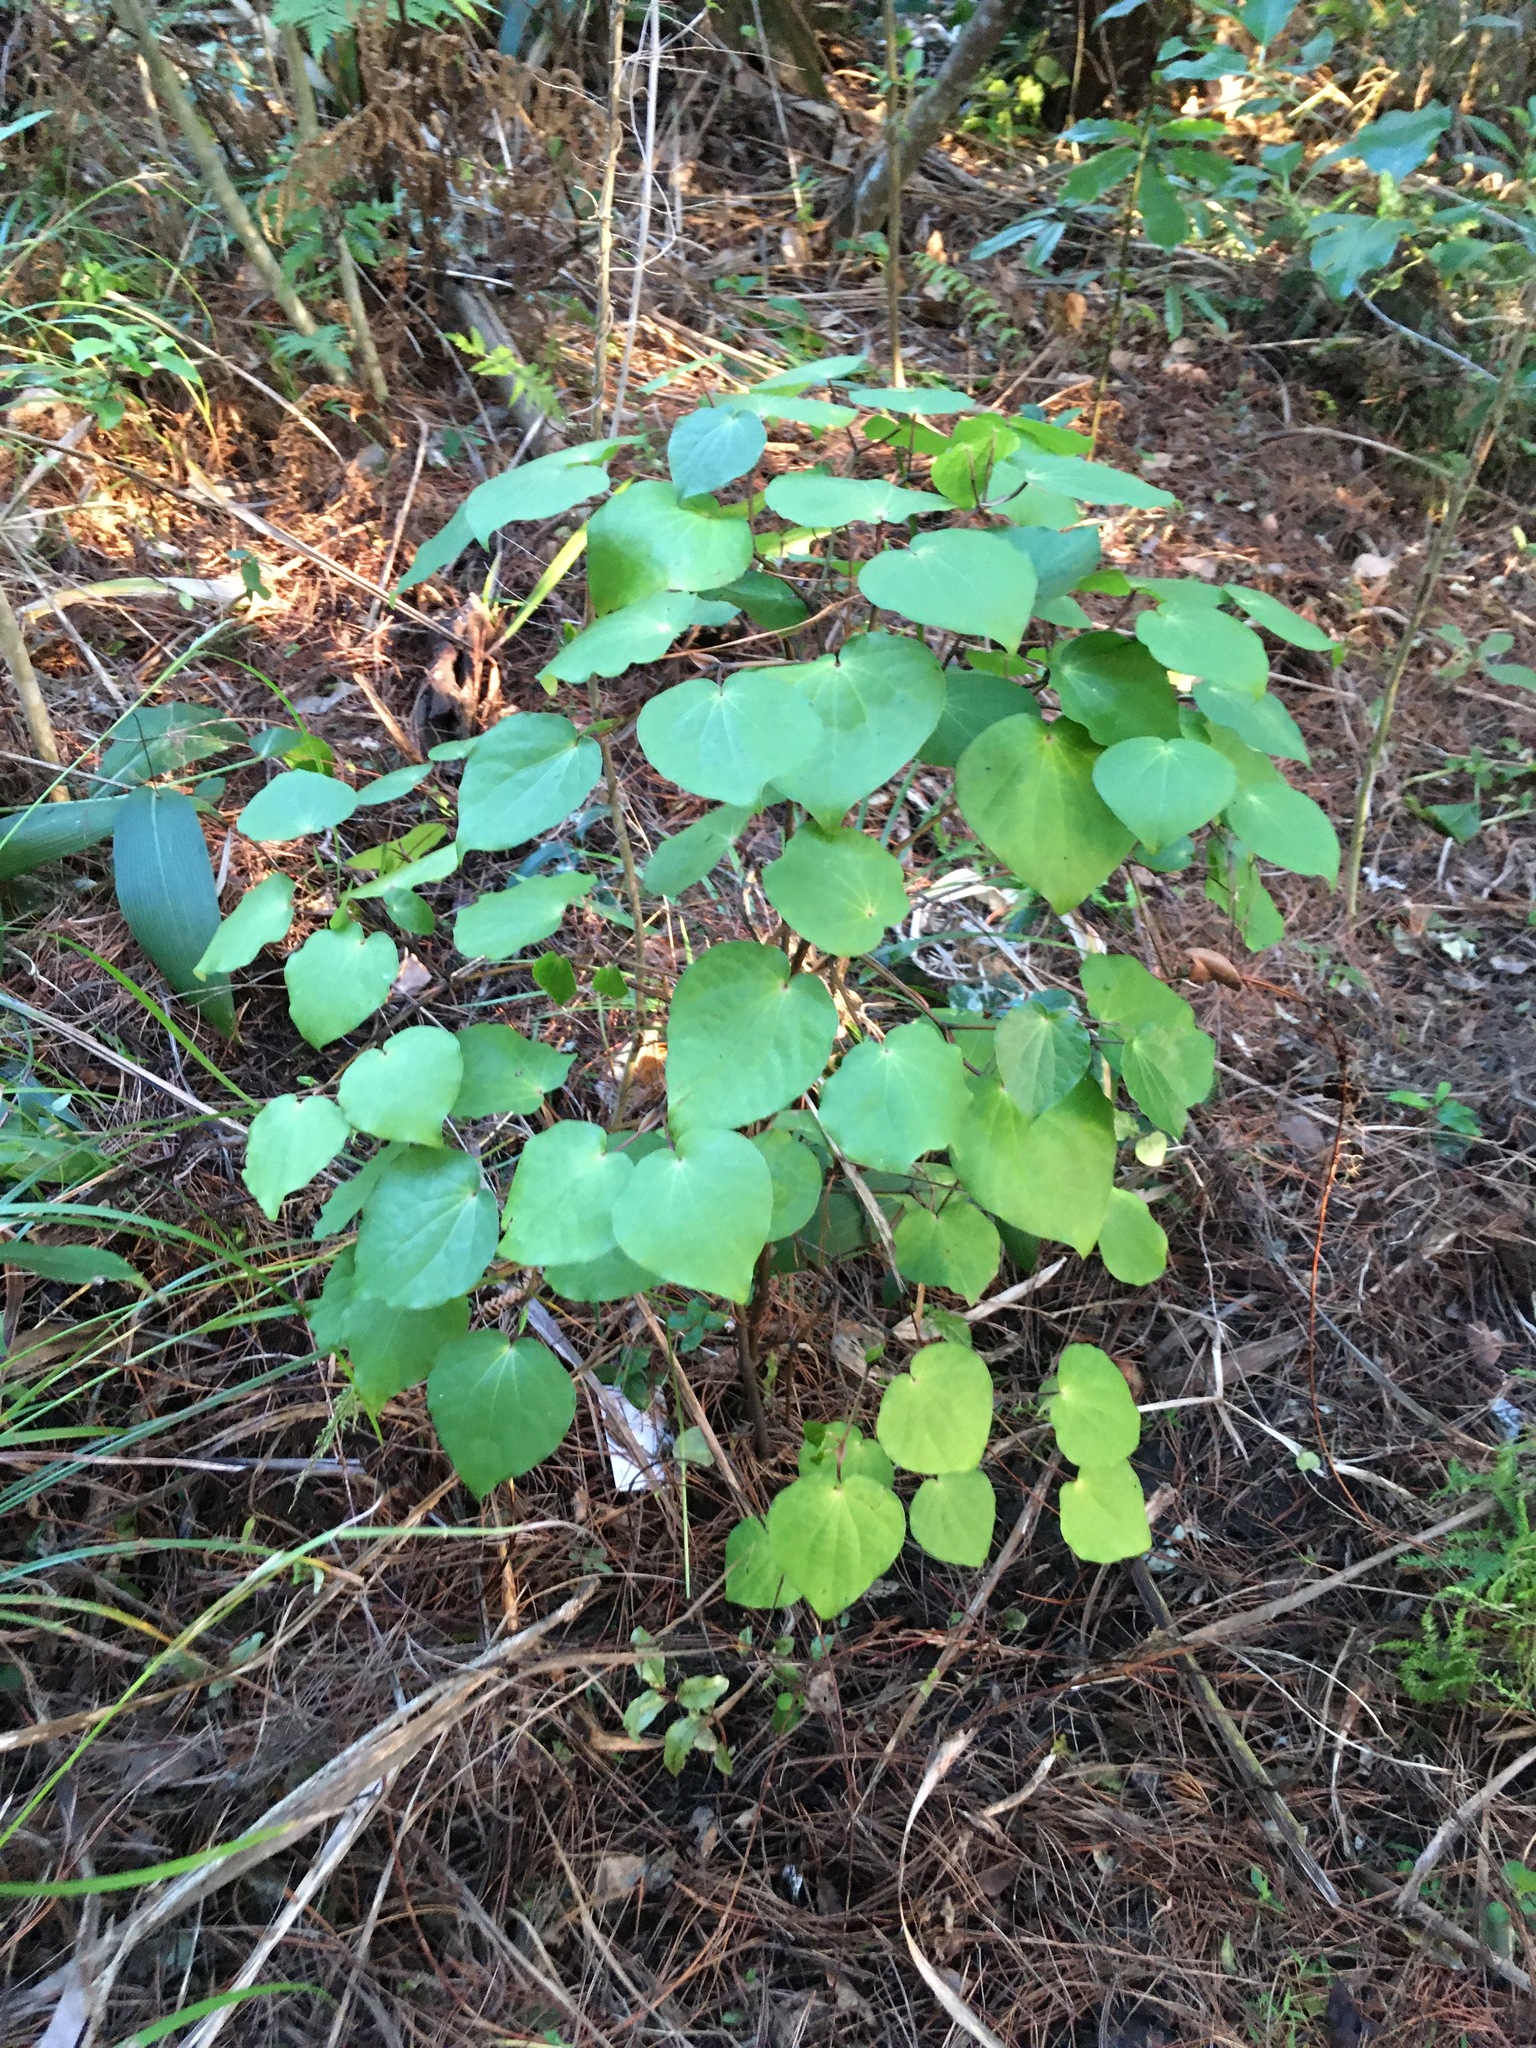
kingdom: Plantae
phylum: Tracheophyta
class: Magnoliopsida
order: Piperales
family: Piperaceae
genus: Macropiper
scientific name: Macropiper excelsum
